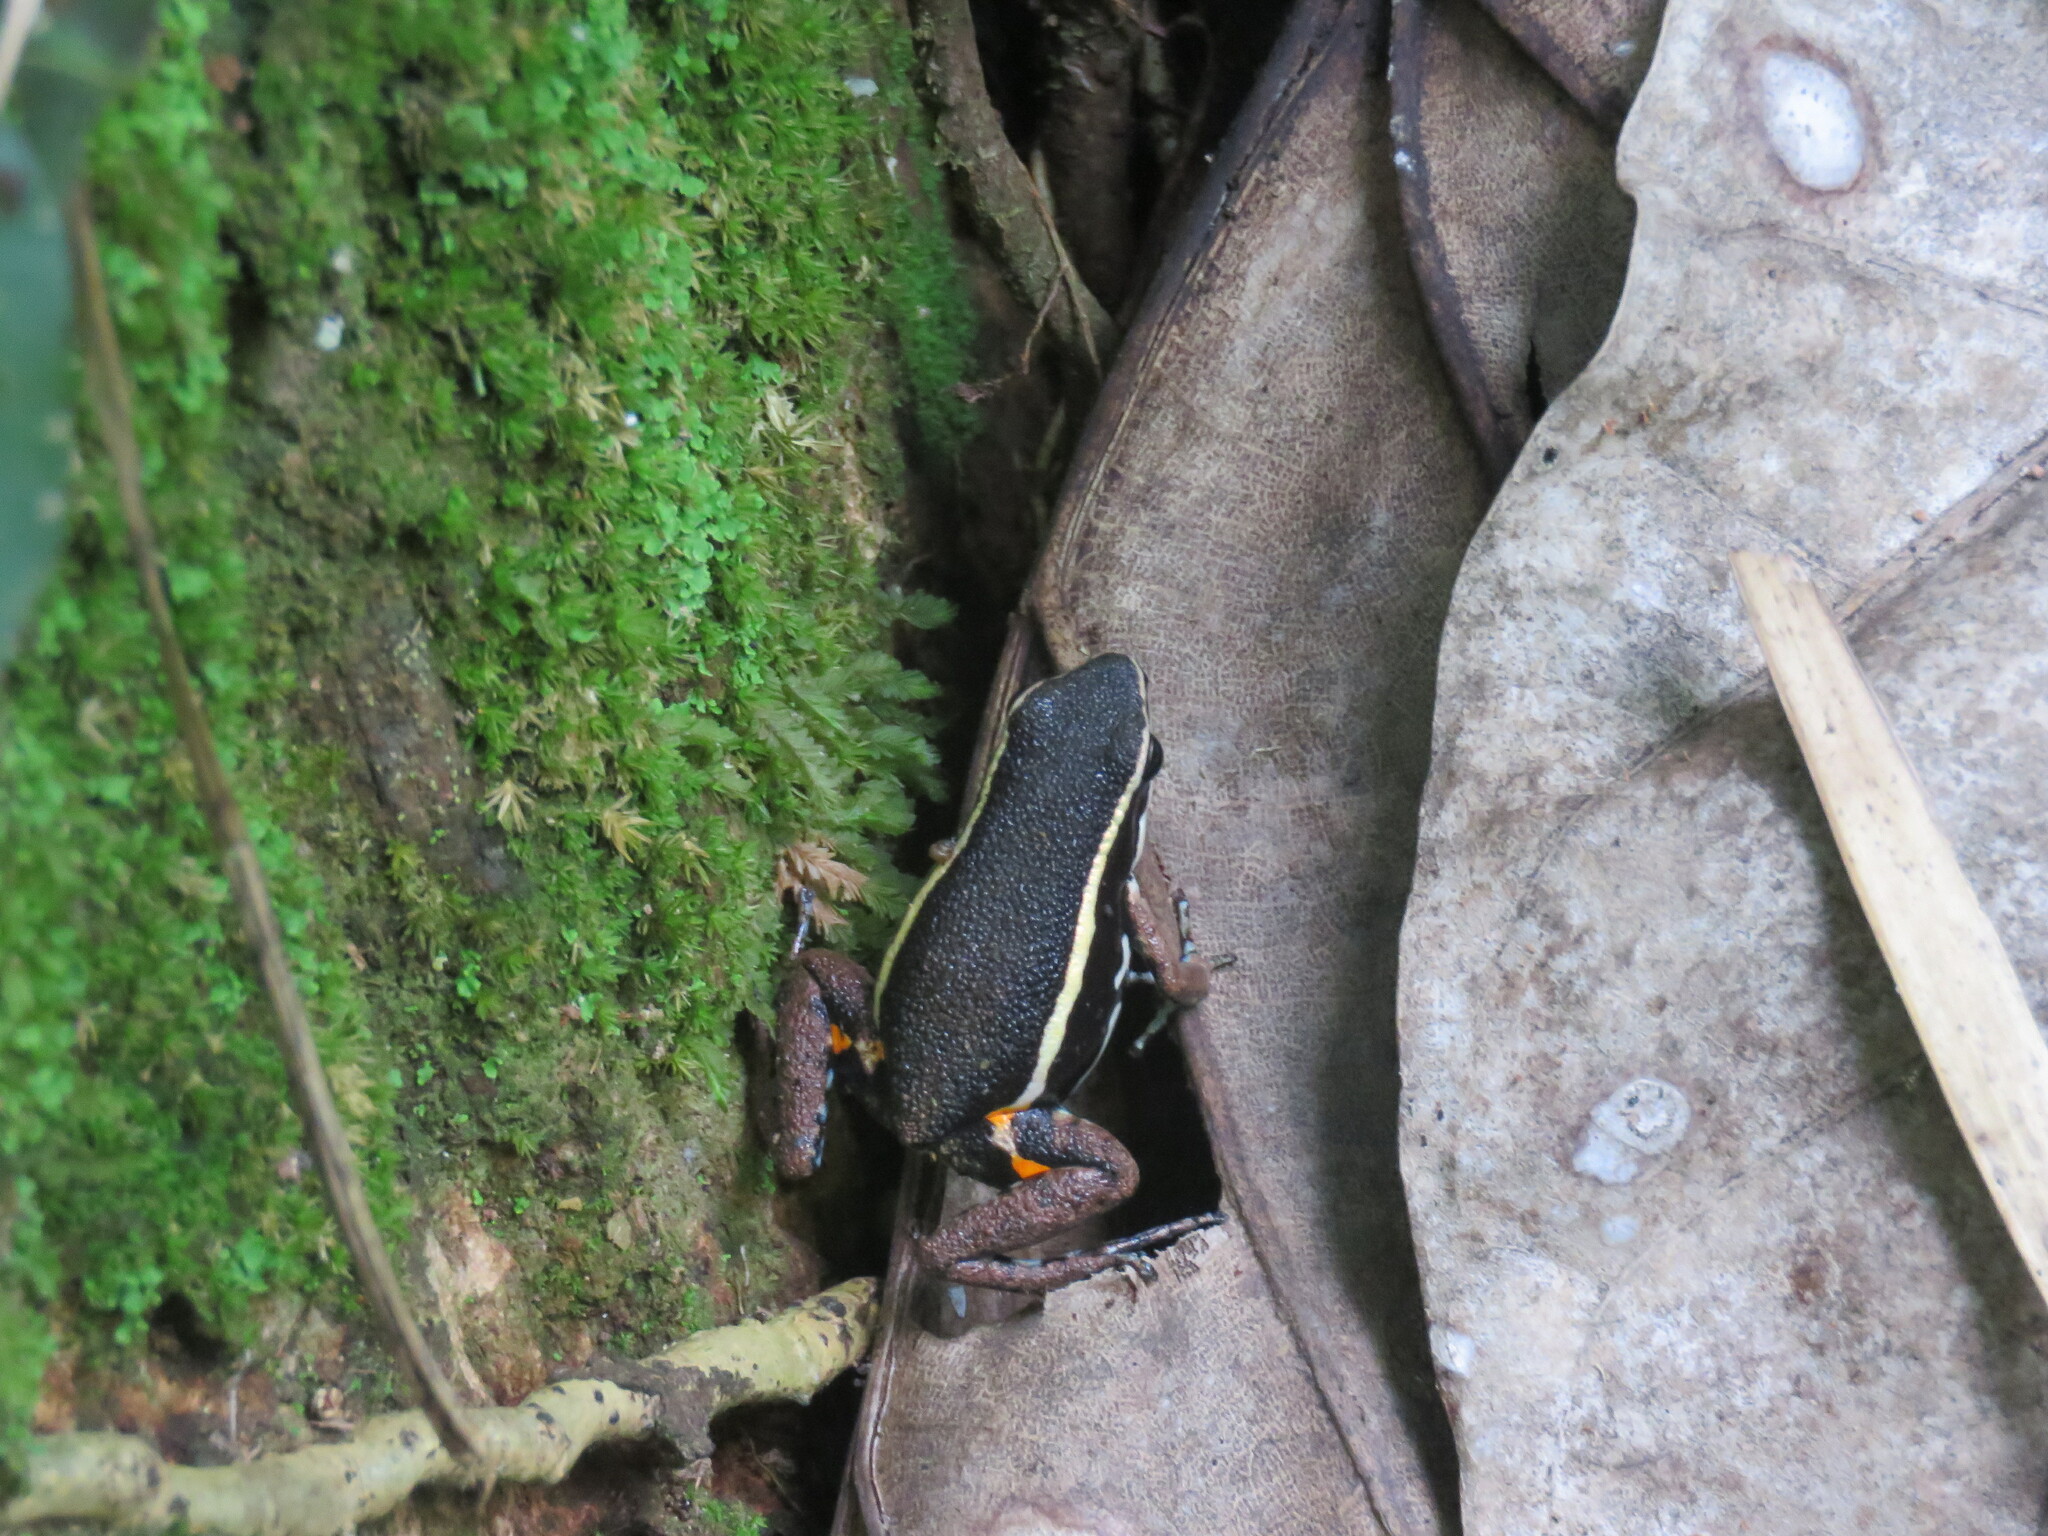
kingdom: Animalia
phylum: Chordata
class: Amphibia
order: Anura
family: Dendrobatidae
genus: Ameerega
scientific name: Ameerega picta
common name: Spot-legged poison frog
